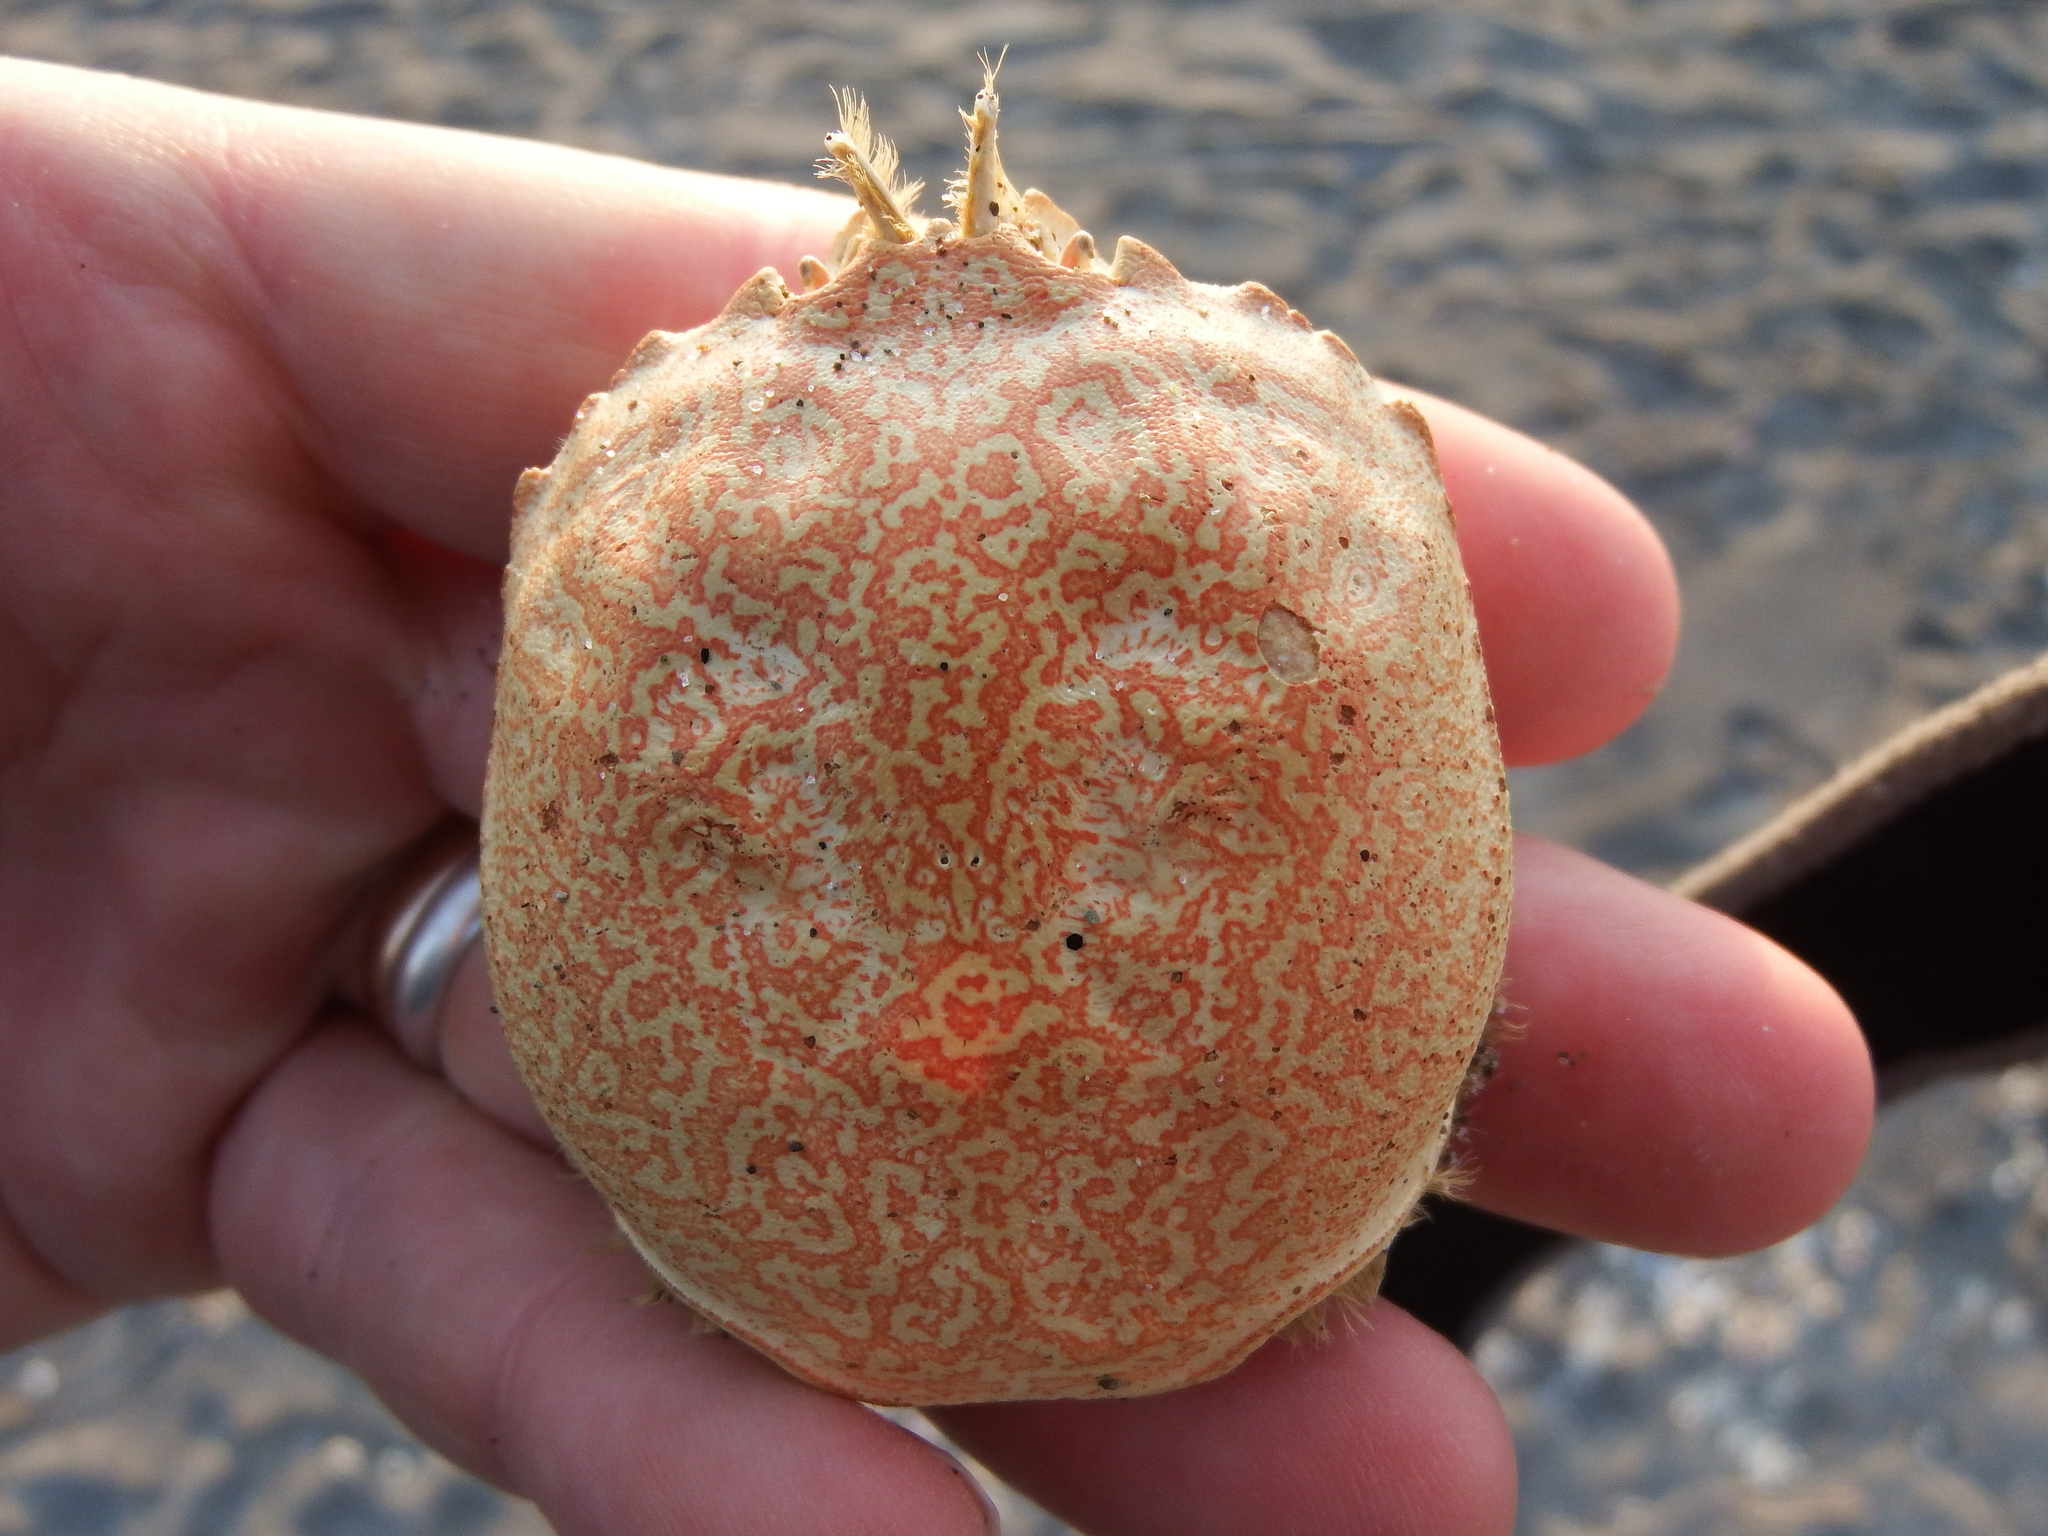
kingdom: Animalia
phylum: Arthropoda
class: Malacostraca
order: Decapoda
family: Belliidae
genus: Bellia
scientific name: Bellia picta
